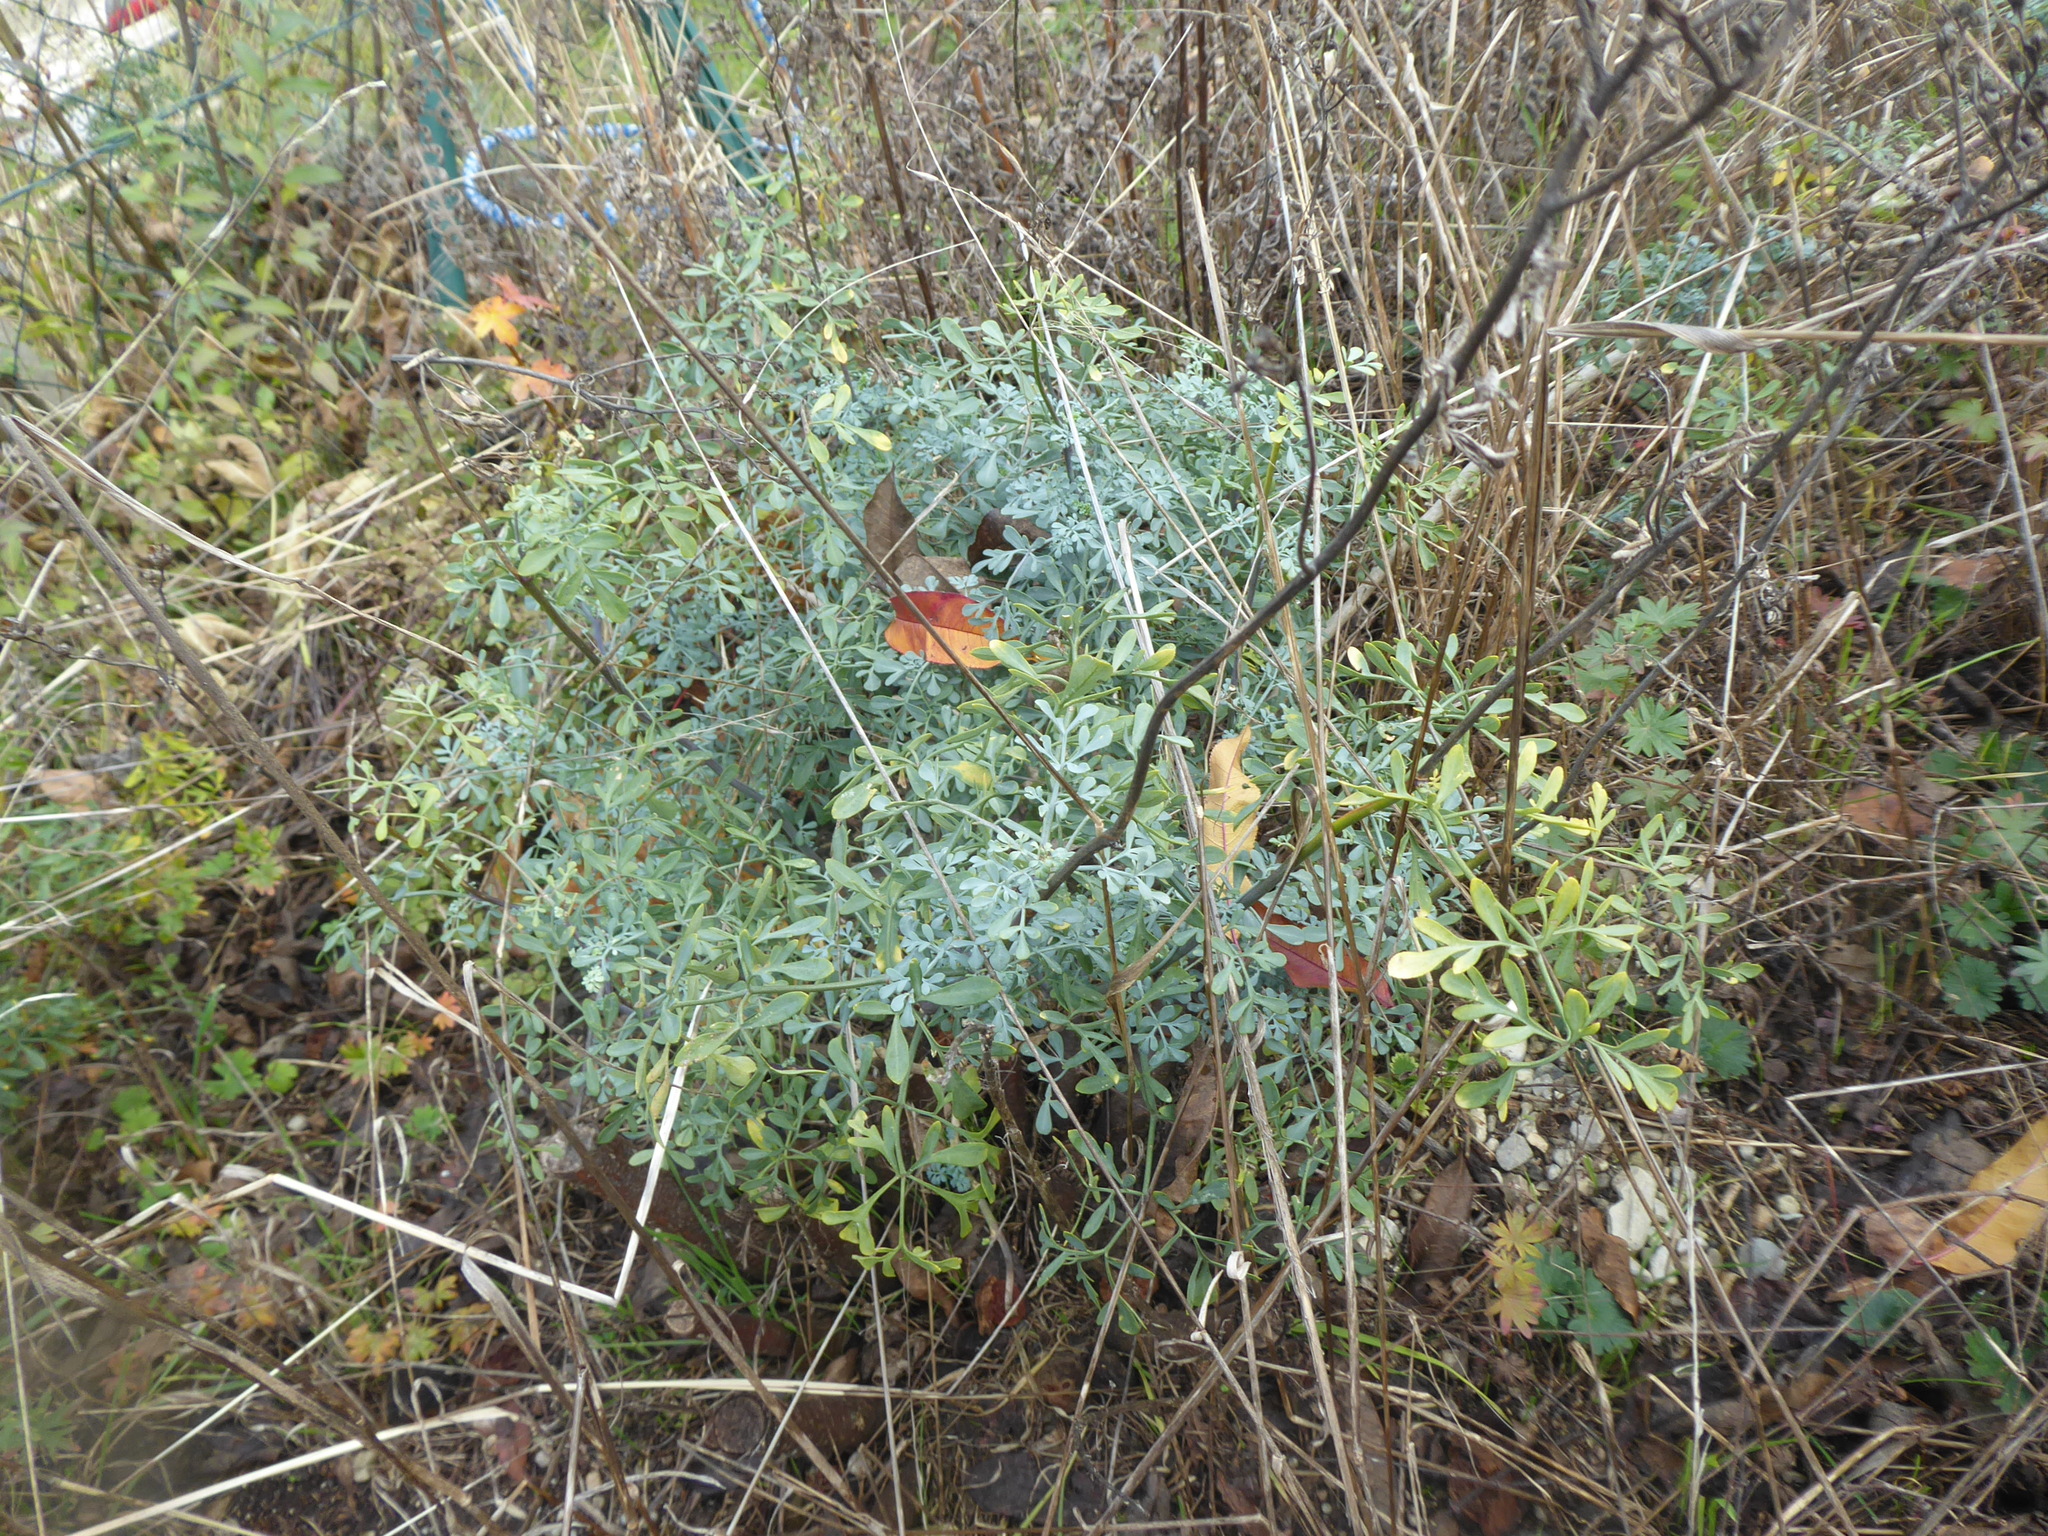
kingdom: Plantae
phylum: Tracheophyta
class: Magnoliopsida
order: Sapindales
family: Rutaceae
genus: Ruta
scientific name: Ruta graveolens
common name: Common rue
